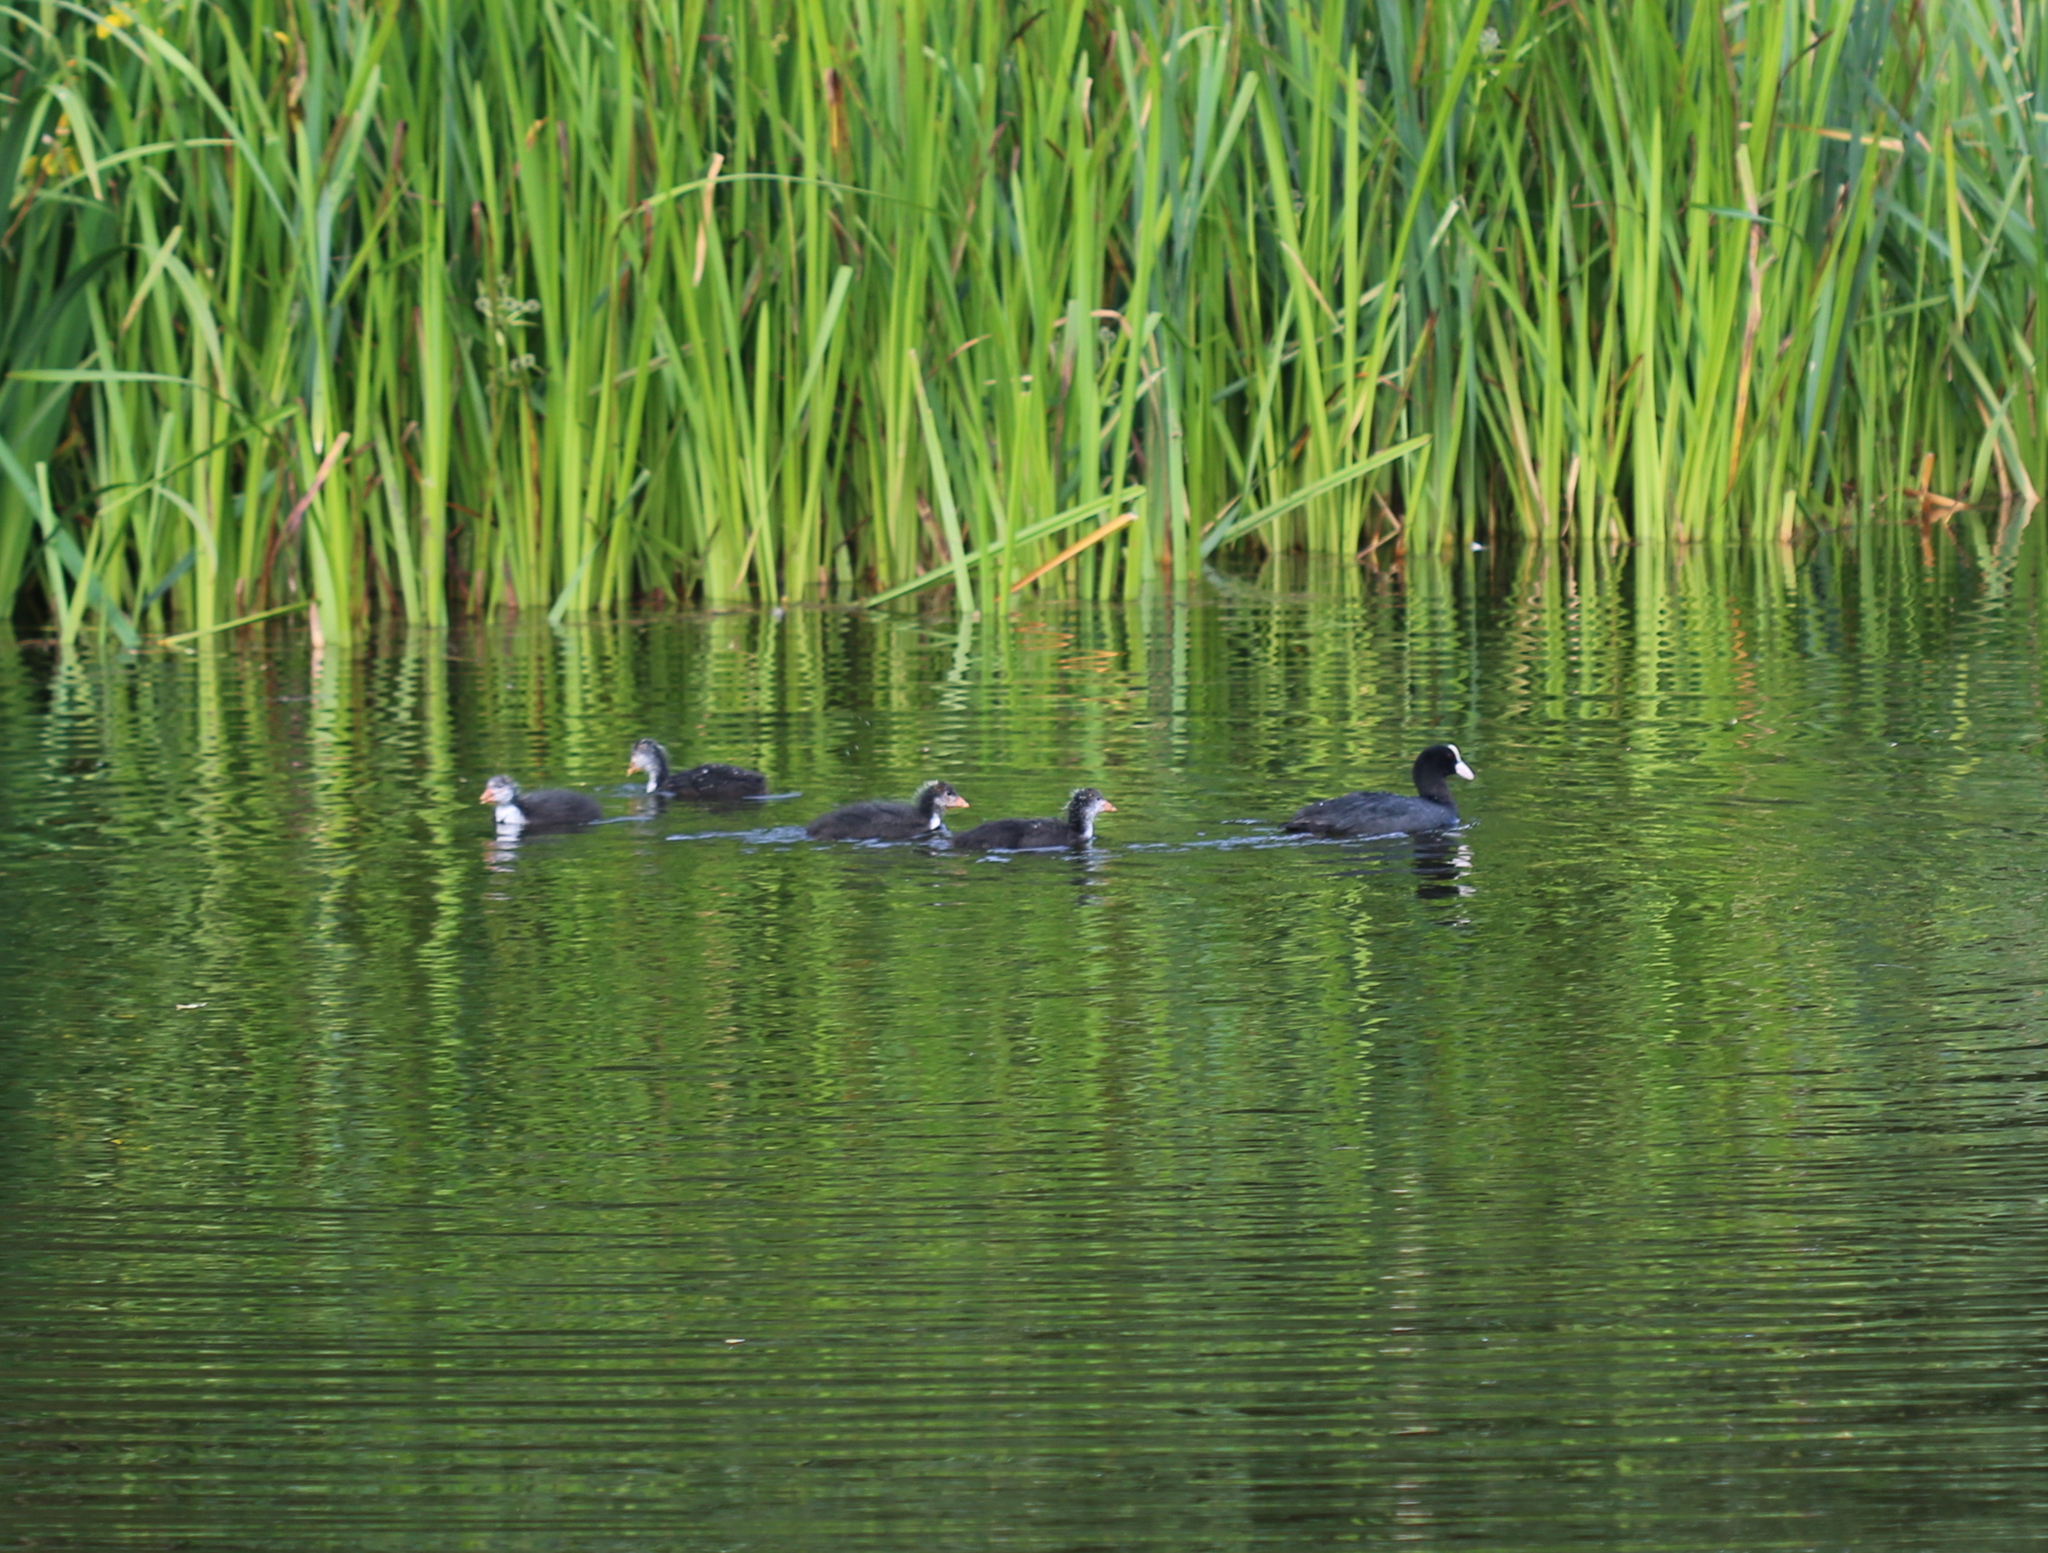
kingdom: Animalia
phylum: Chordata
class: Aves
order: Gruiformes
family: Rallidae
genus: Fulica
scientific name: Fulica atra
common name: Eurasian coot
